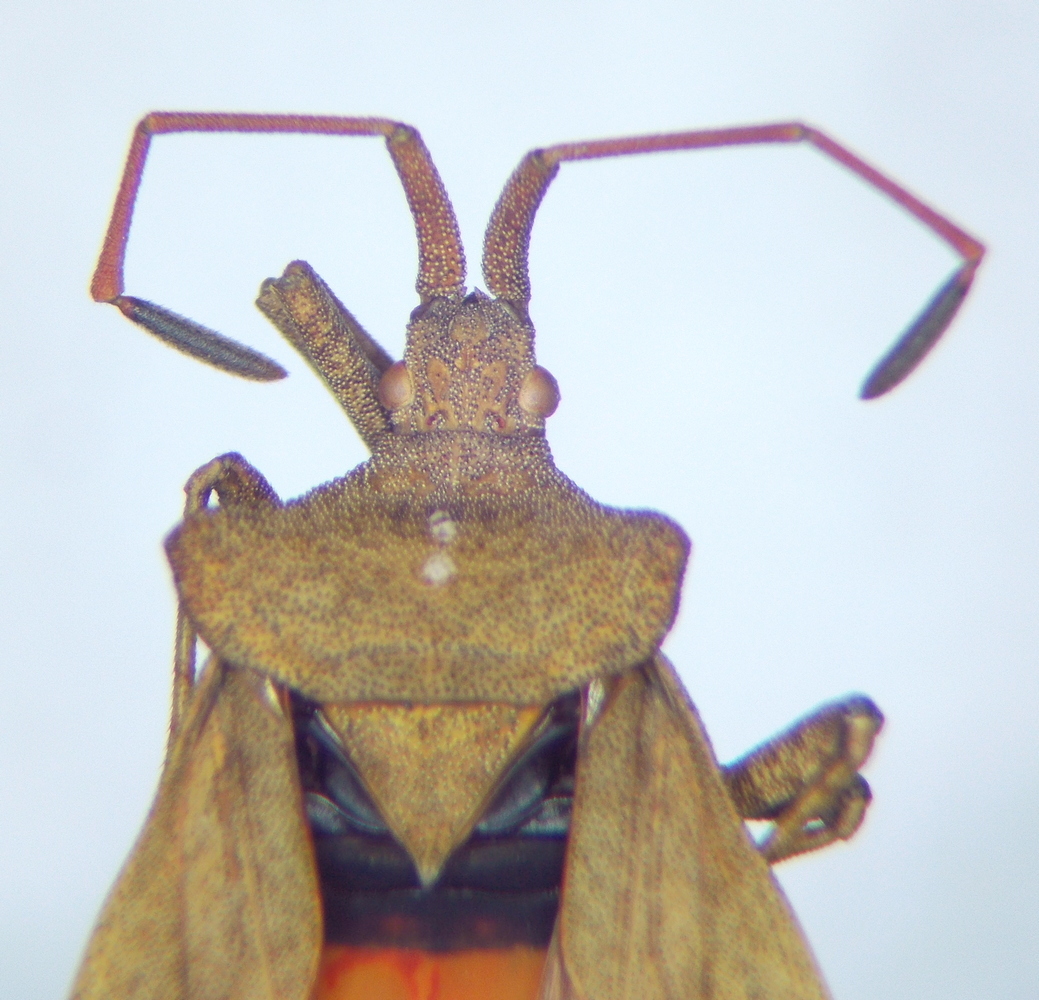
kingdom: Animalia
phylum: Arthropoda
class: Insecta
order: Hemiptera
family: Coreidae
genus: Coreus
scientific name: Coreus marginatus
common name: Dock bug
